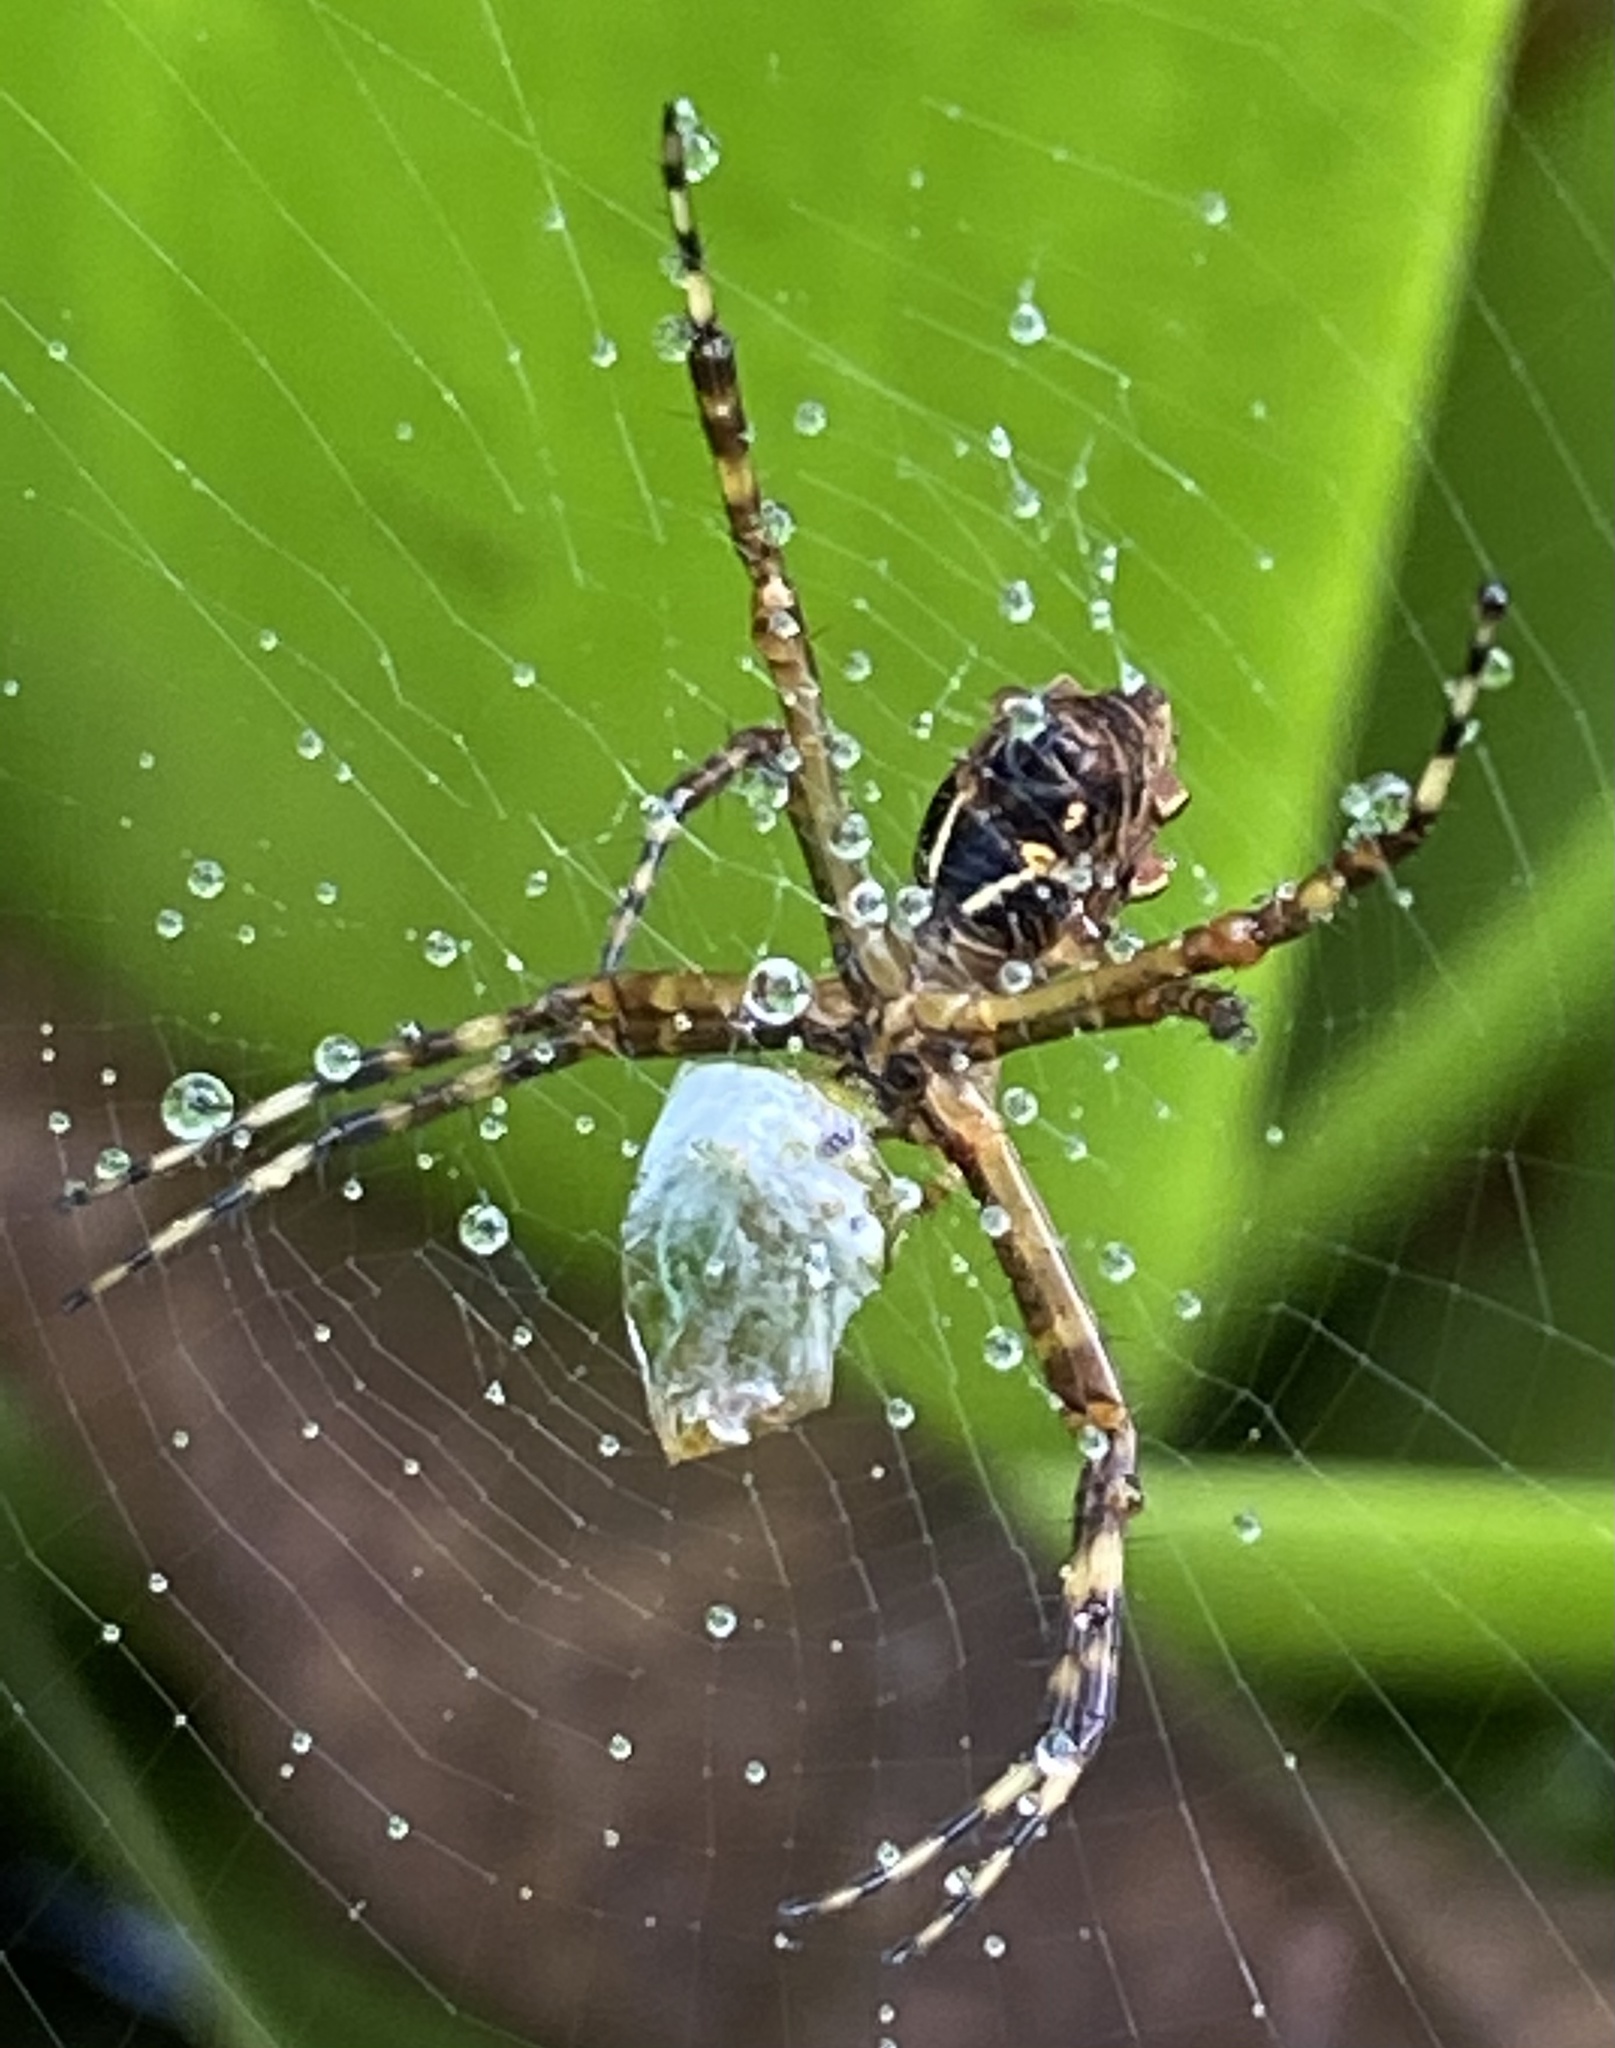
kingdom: Animalia
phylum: Arthropoda
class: Arachnida
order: Araneae
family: Araneidae
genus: Argiope
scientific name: Argiope argentata
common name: Orb weavers
